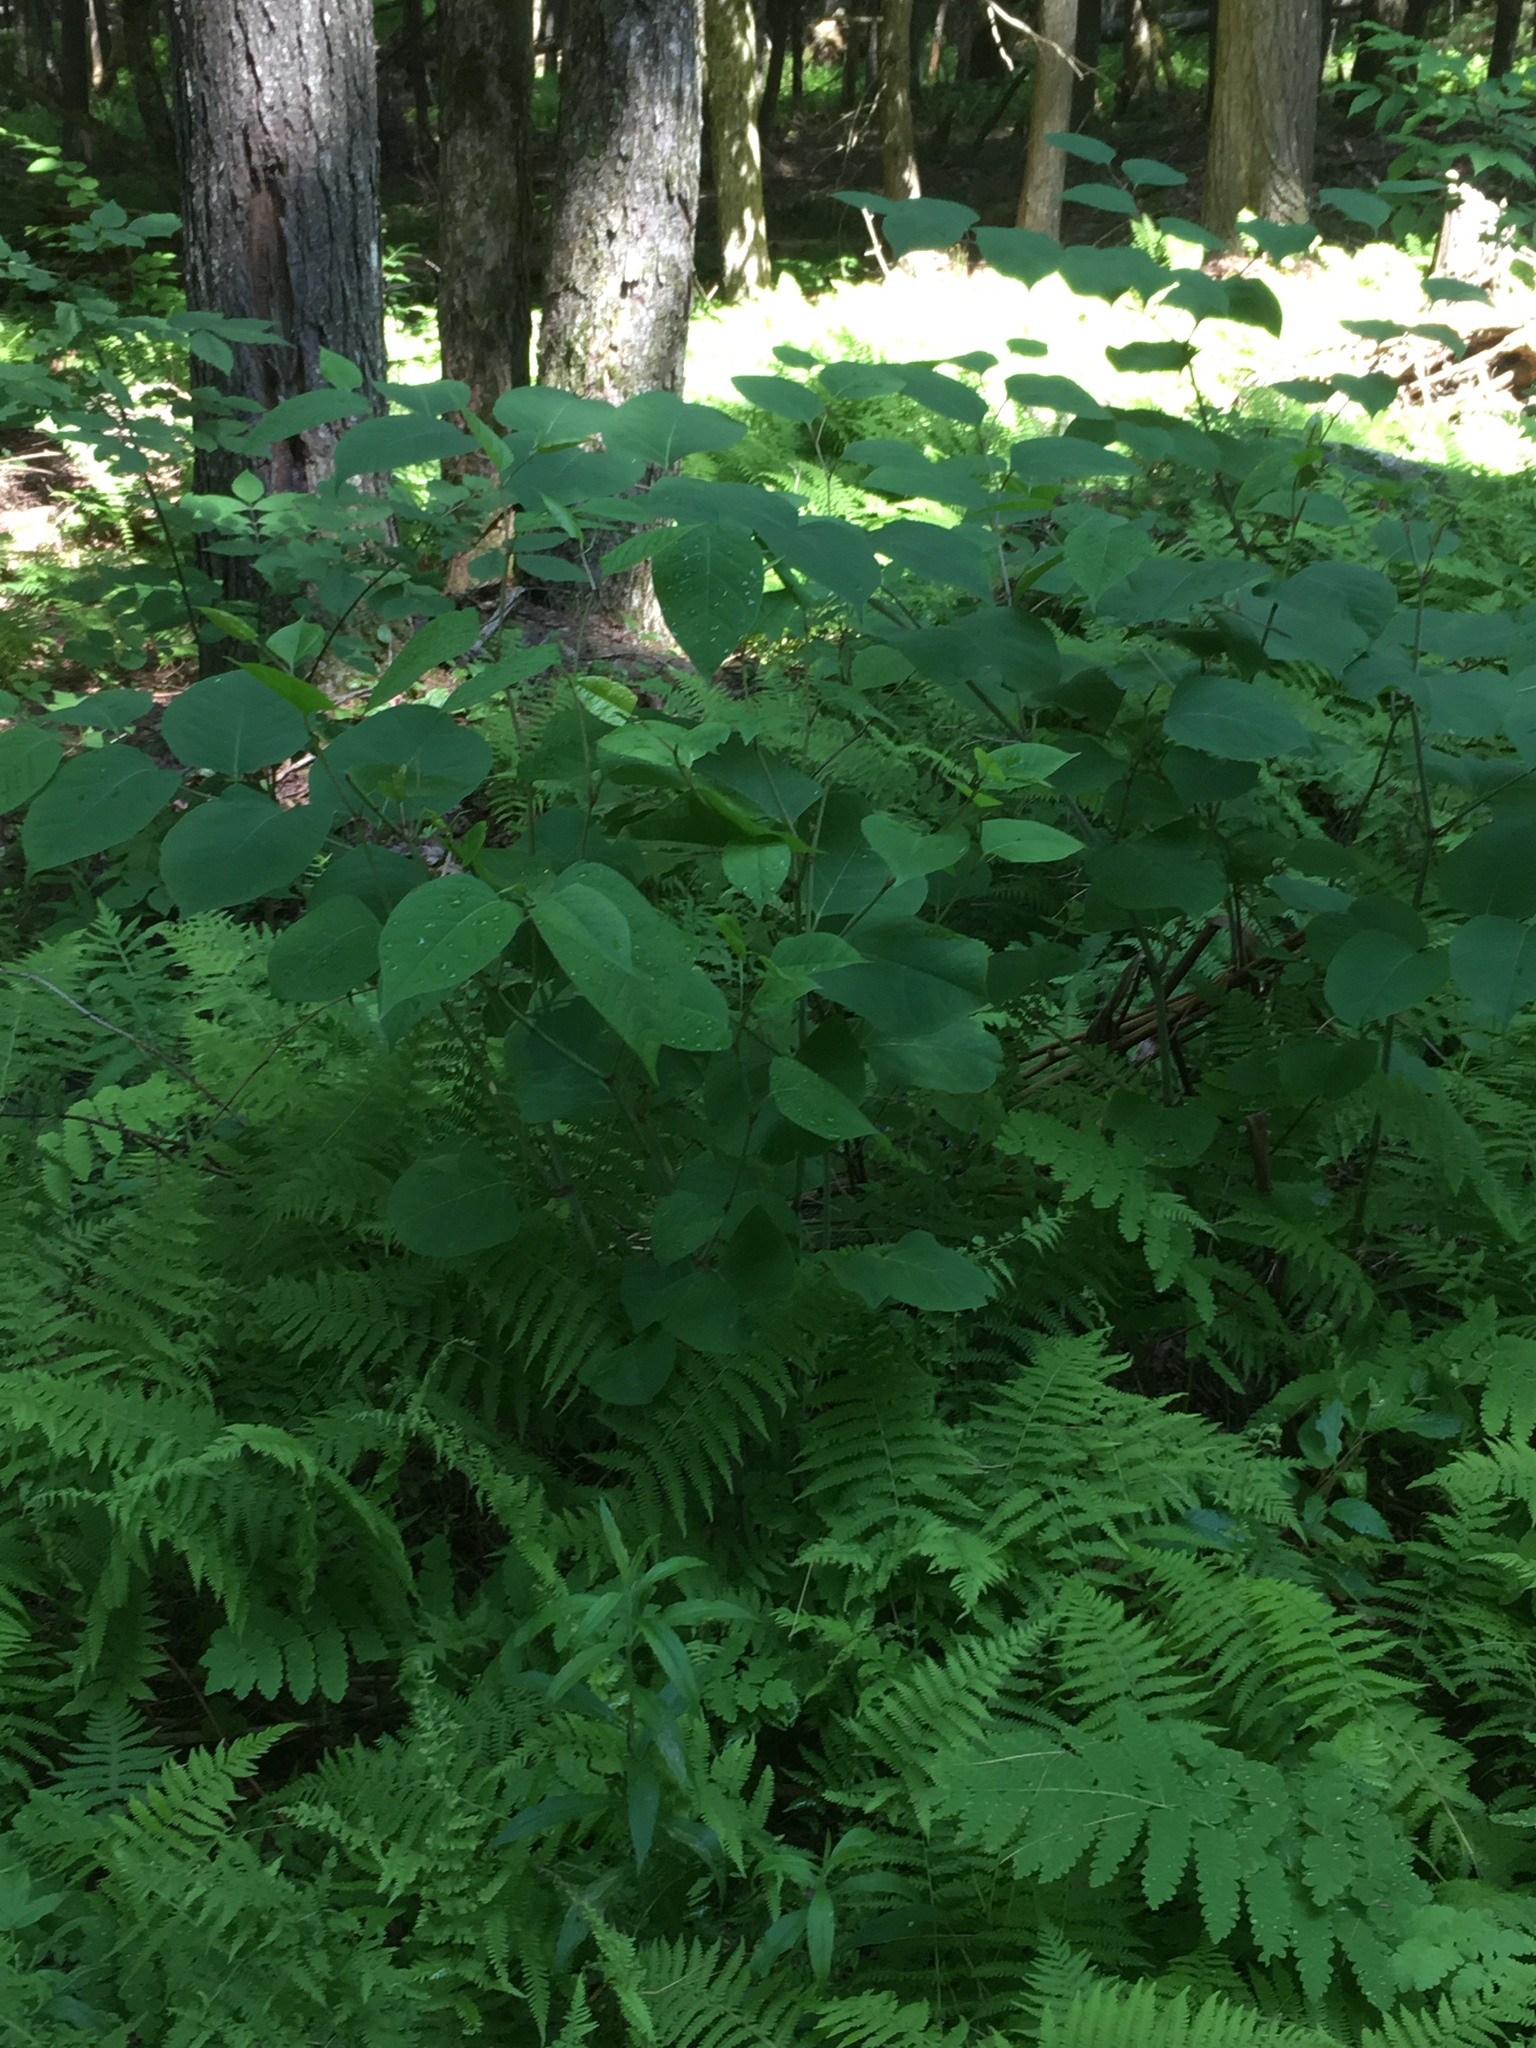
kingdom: Plantae
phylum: Tracheophyta
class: Magnoliopsida
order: Caryophyllales
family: Polygonaceae
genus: Reynoutria
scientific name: Reynoutria japonica
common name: Japanese knotweed
